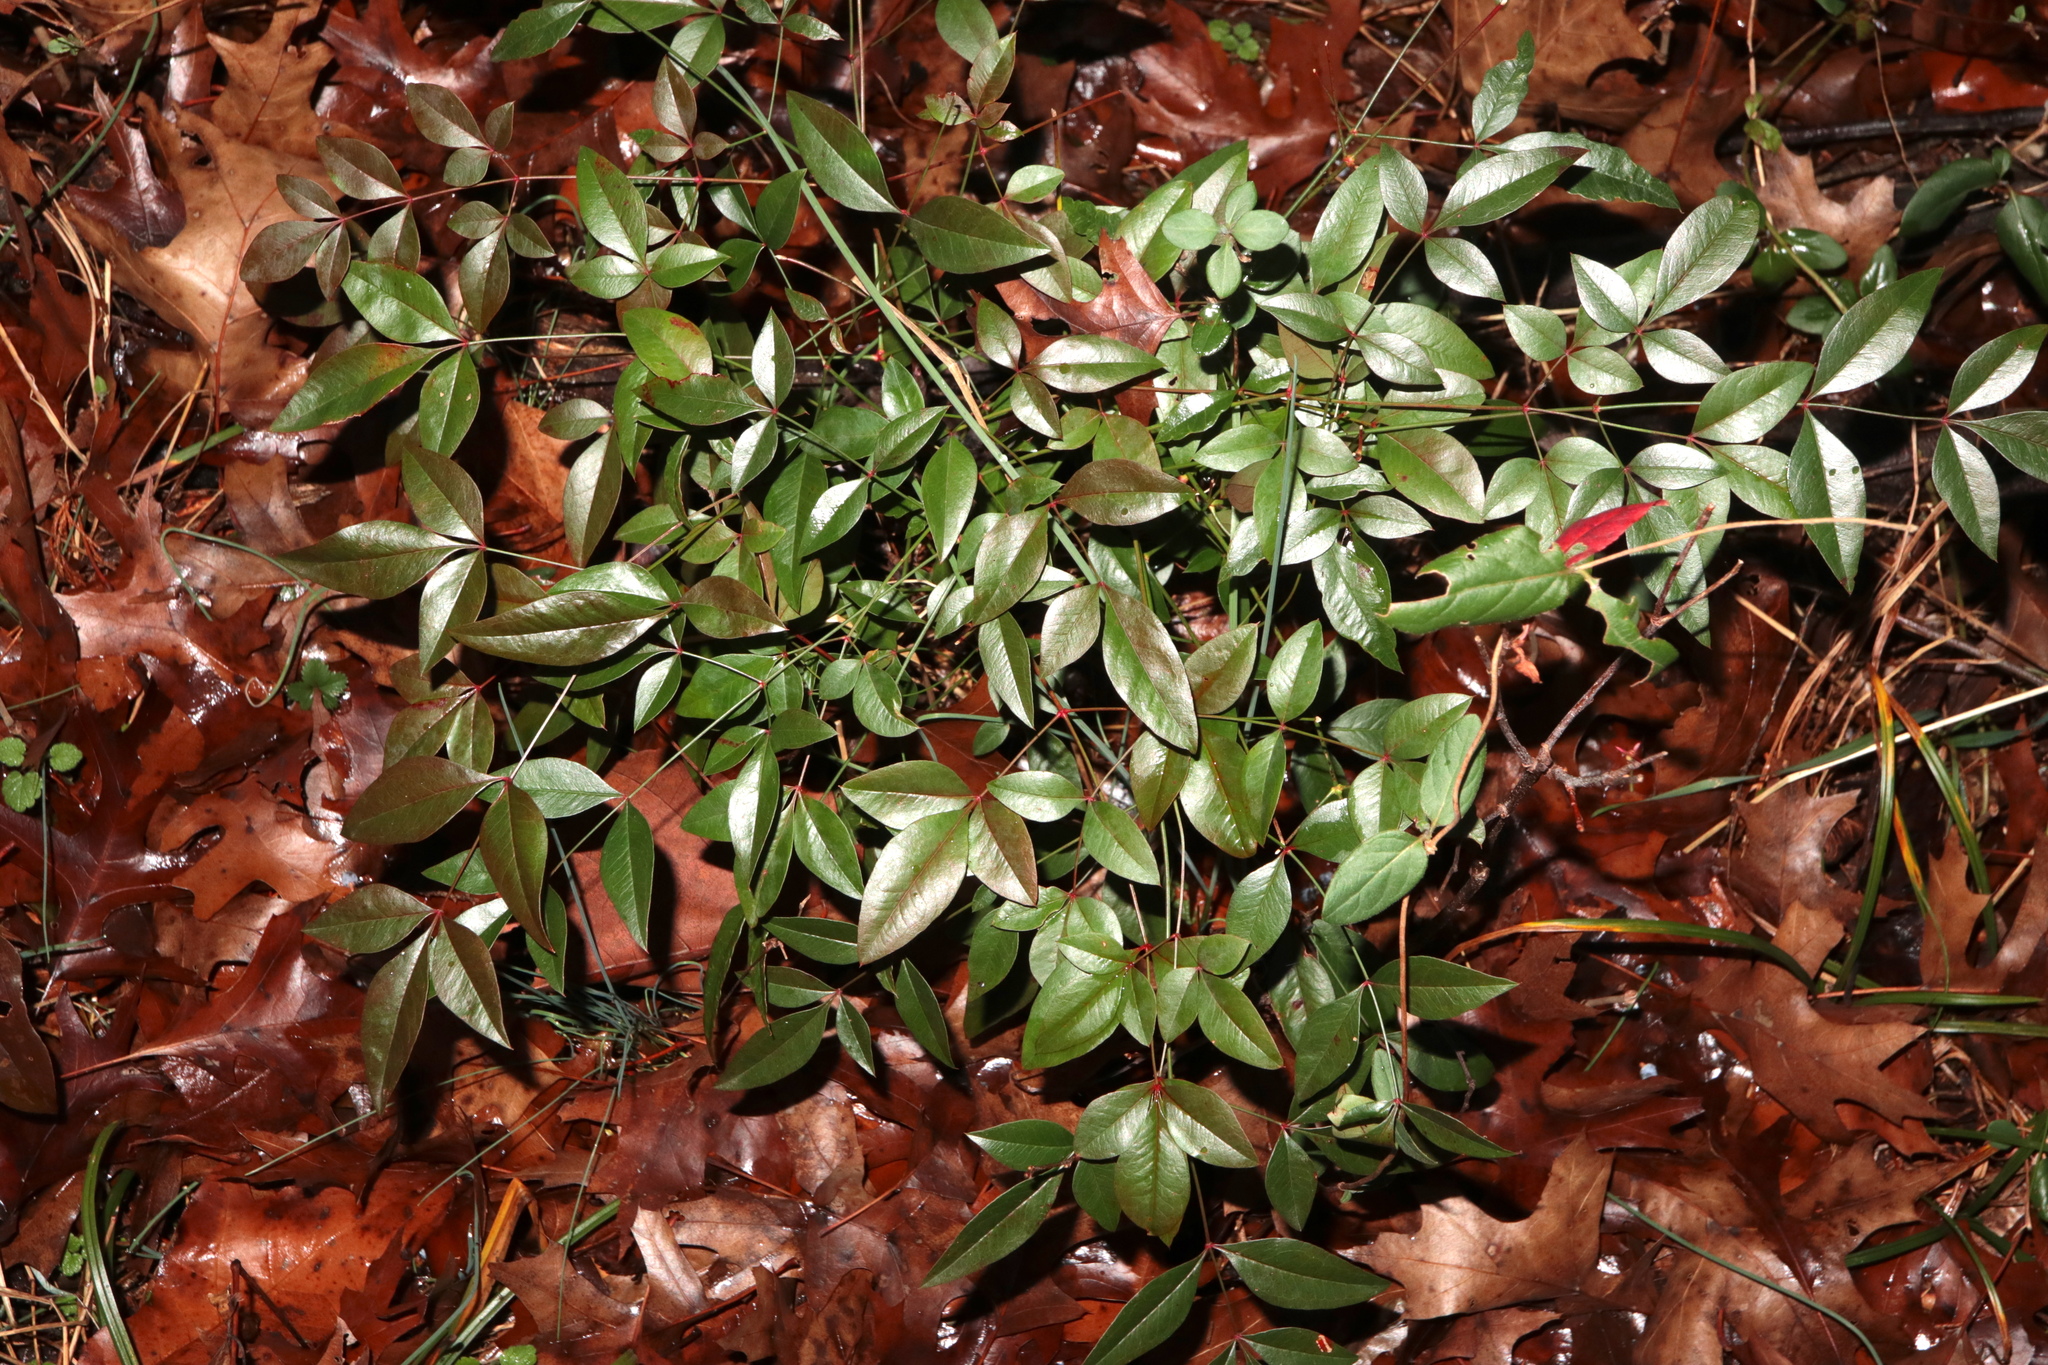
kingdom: Plantae
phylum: Tracheophyta
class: Magnoliopsida
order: Ranunculales
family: Berberidaceae
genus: Nandina
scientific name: Nandina domestica
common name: Sacred bamboo
